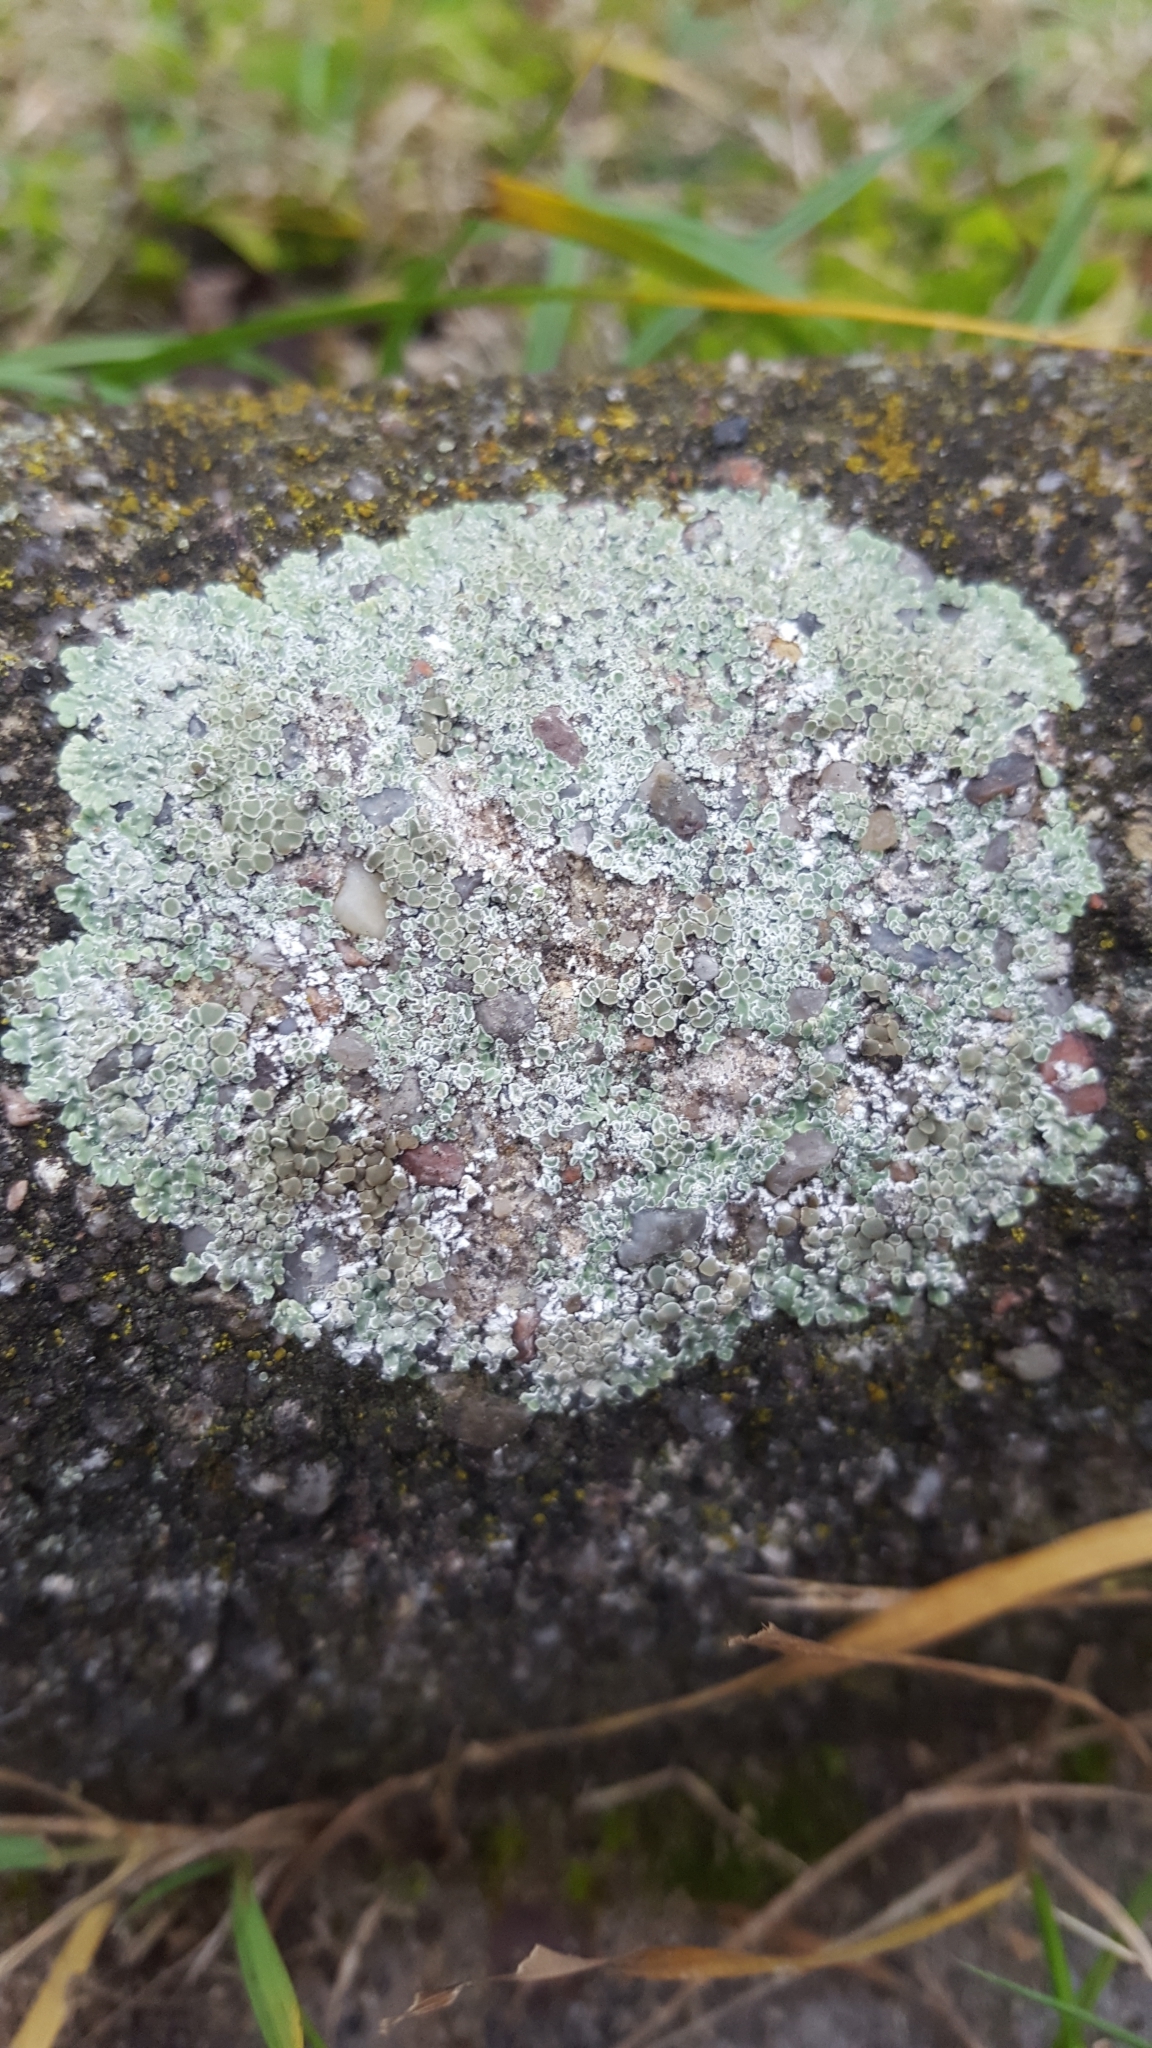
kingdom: Fungi
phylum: Ascomycota
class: Lecanoromycetes
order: Lecanorales
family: Lecanoraceae
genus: Protoparmeliopsis
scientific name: Protoparmeliopsis muralis
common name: Stonewall rim lichen
